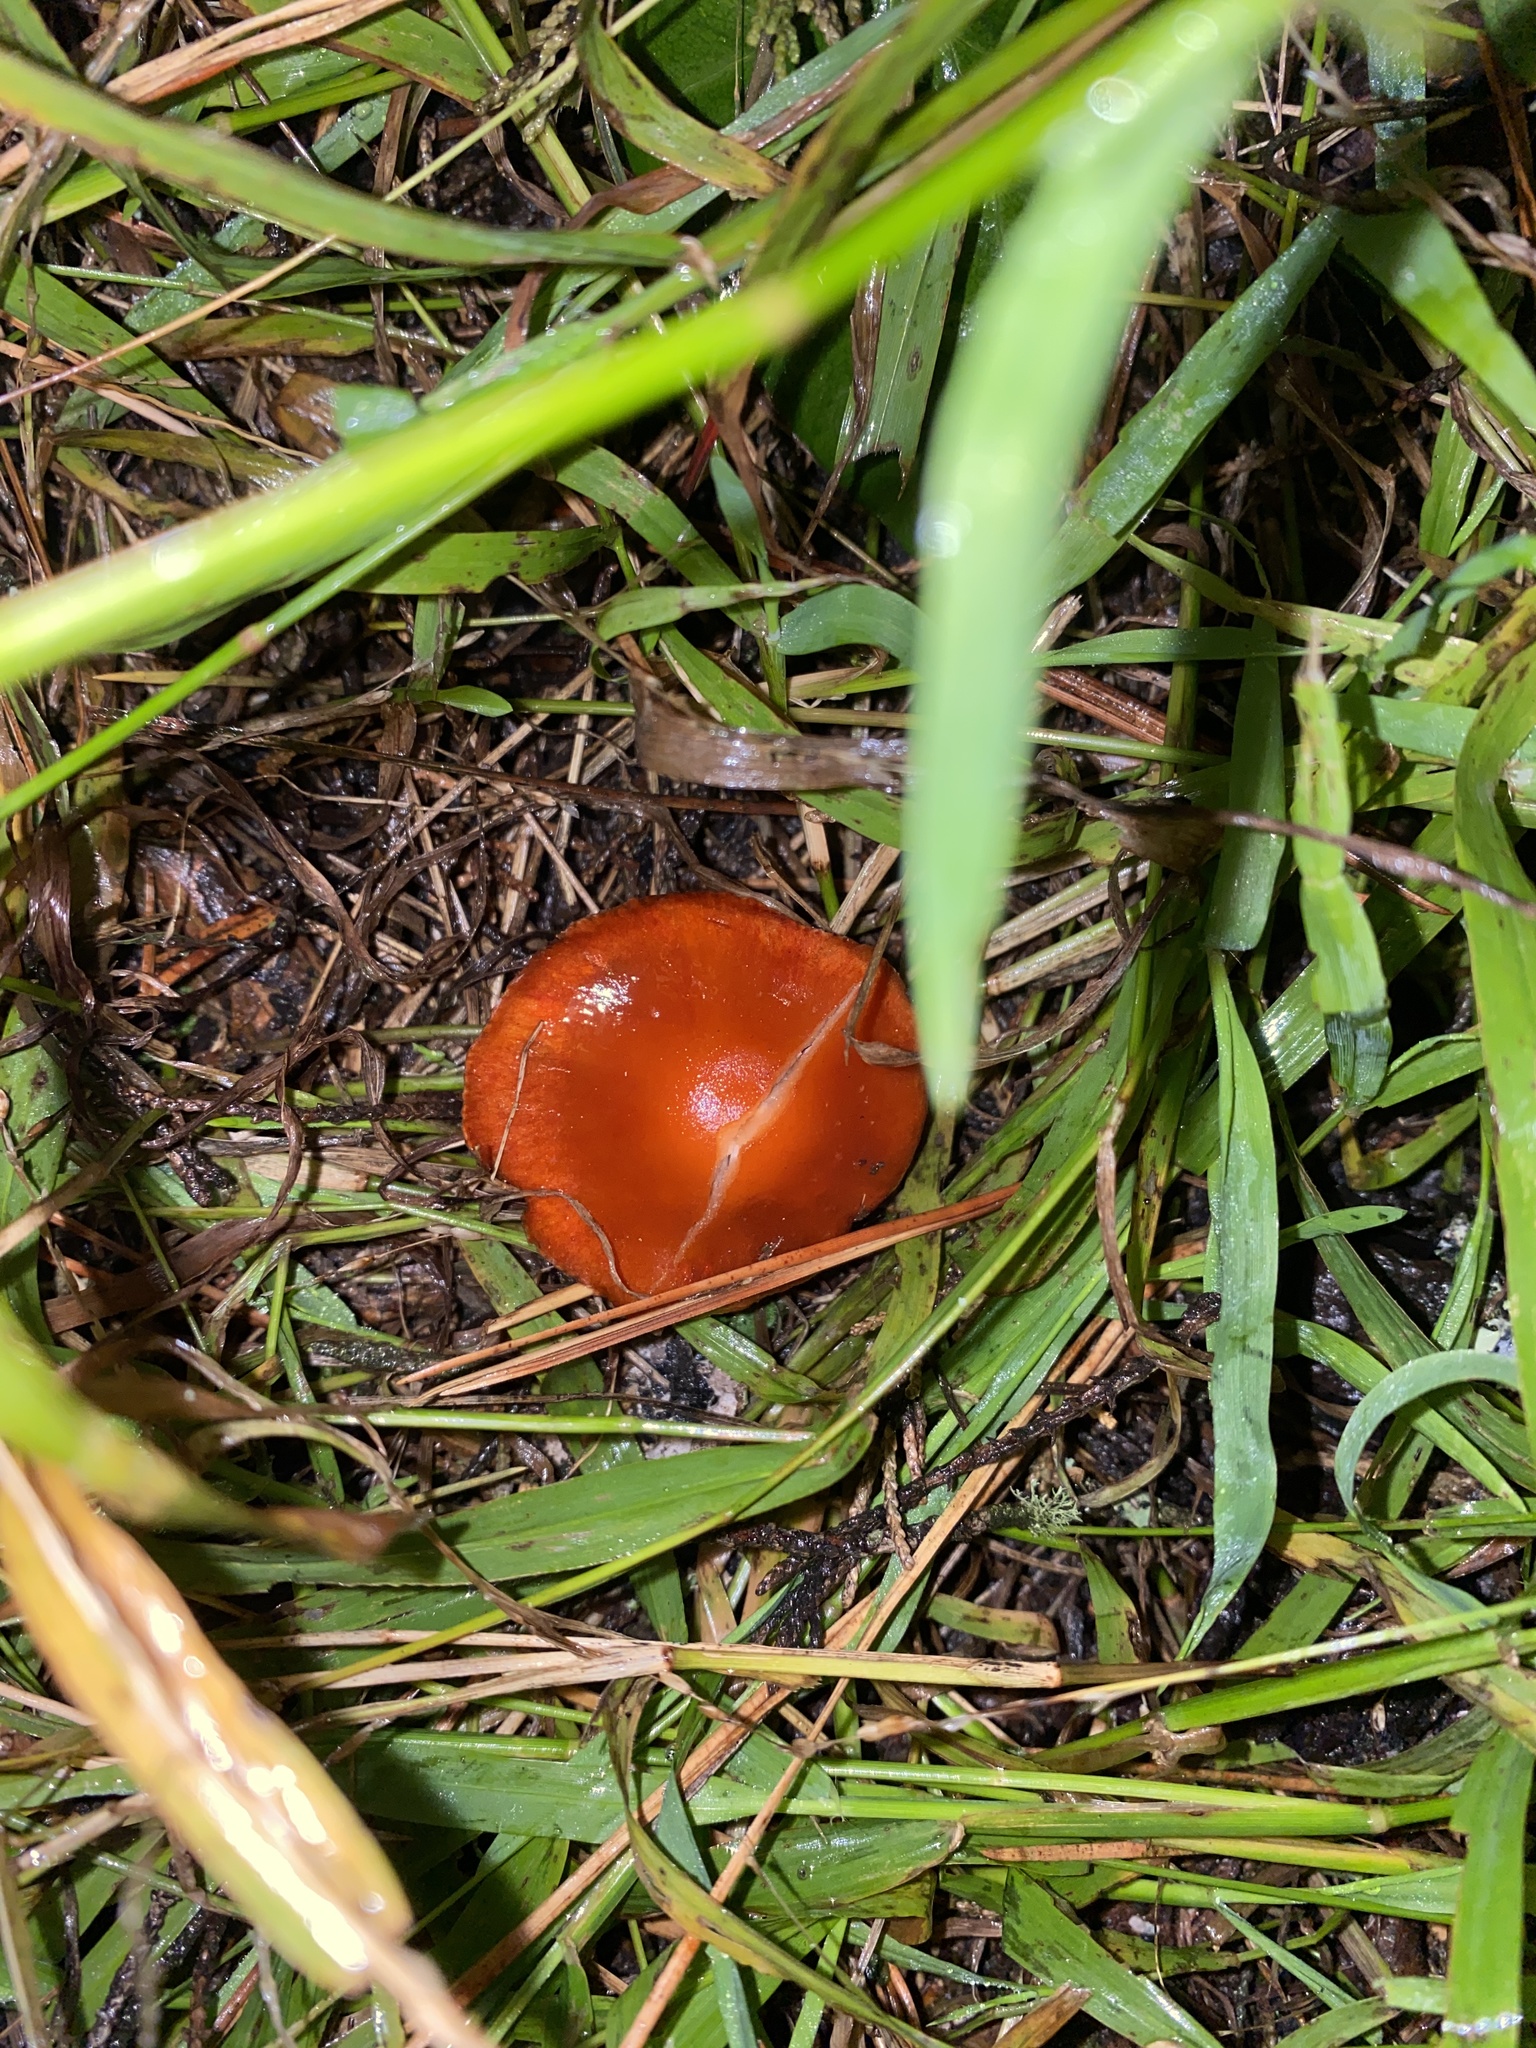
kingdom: Fungi
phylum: Basidiomycota
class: Agaricomycetes
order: Agaricales
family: Strophariaceae
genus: Leratiomyces
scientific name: Leratiomyces ceres
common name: Redlead roundhead
